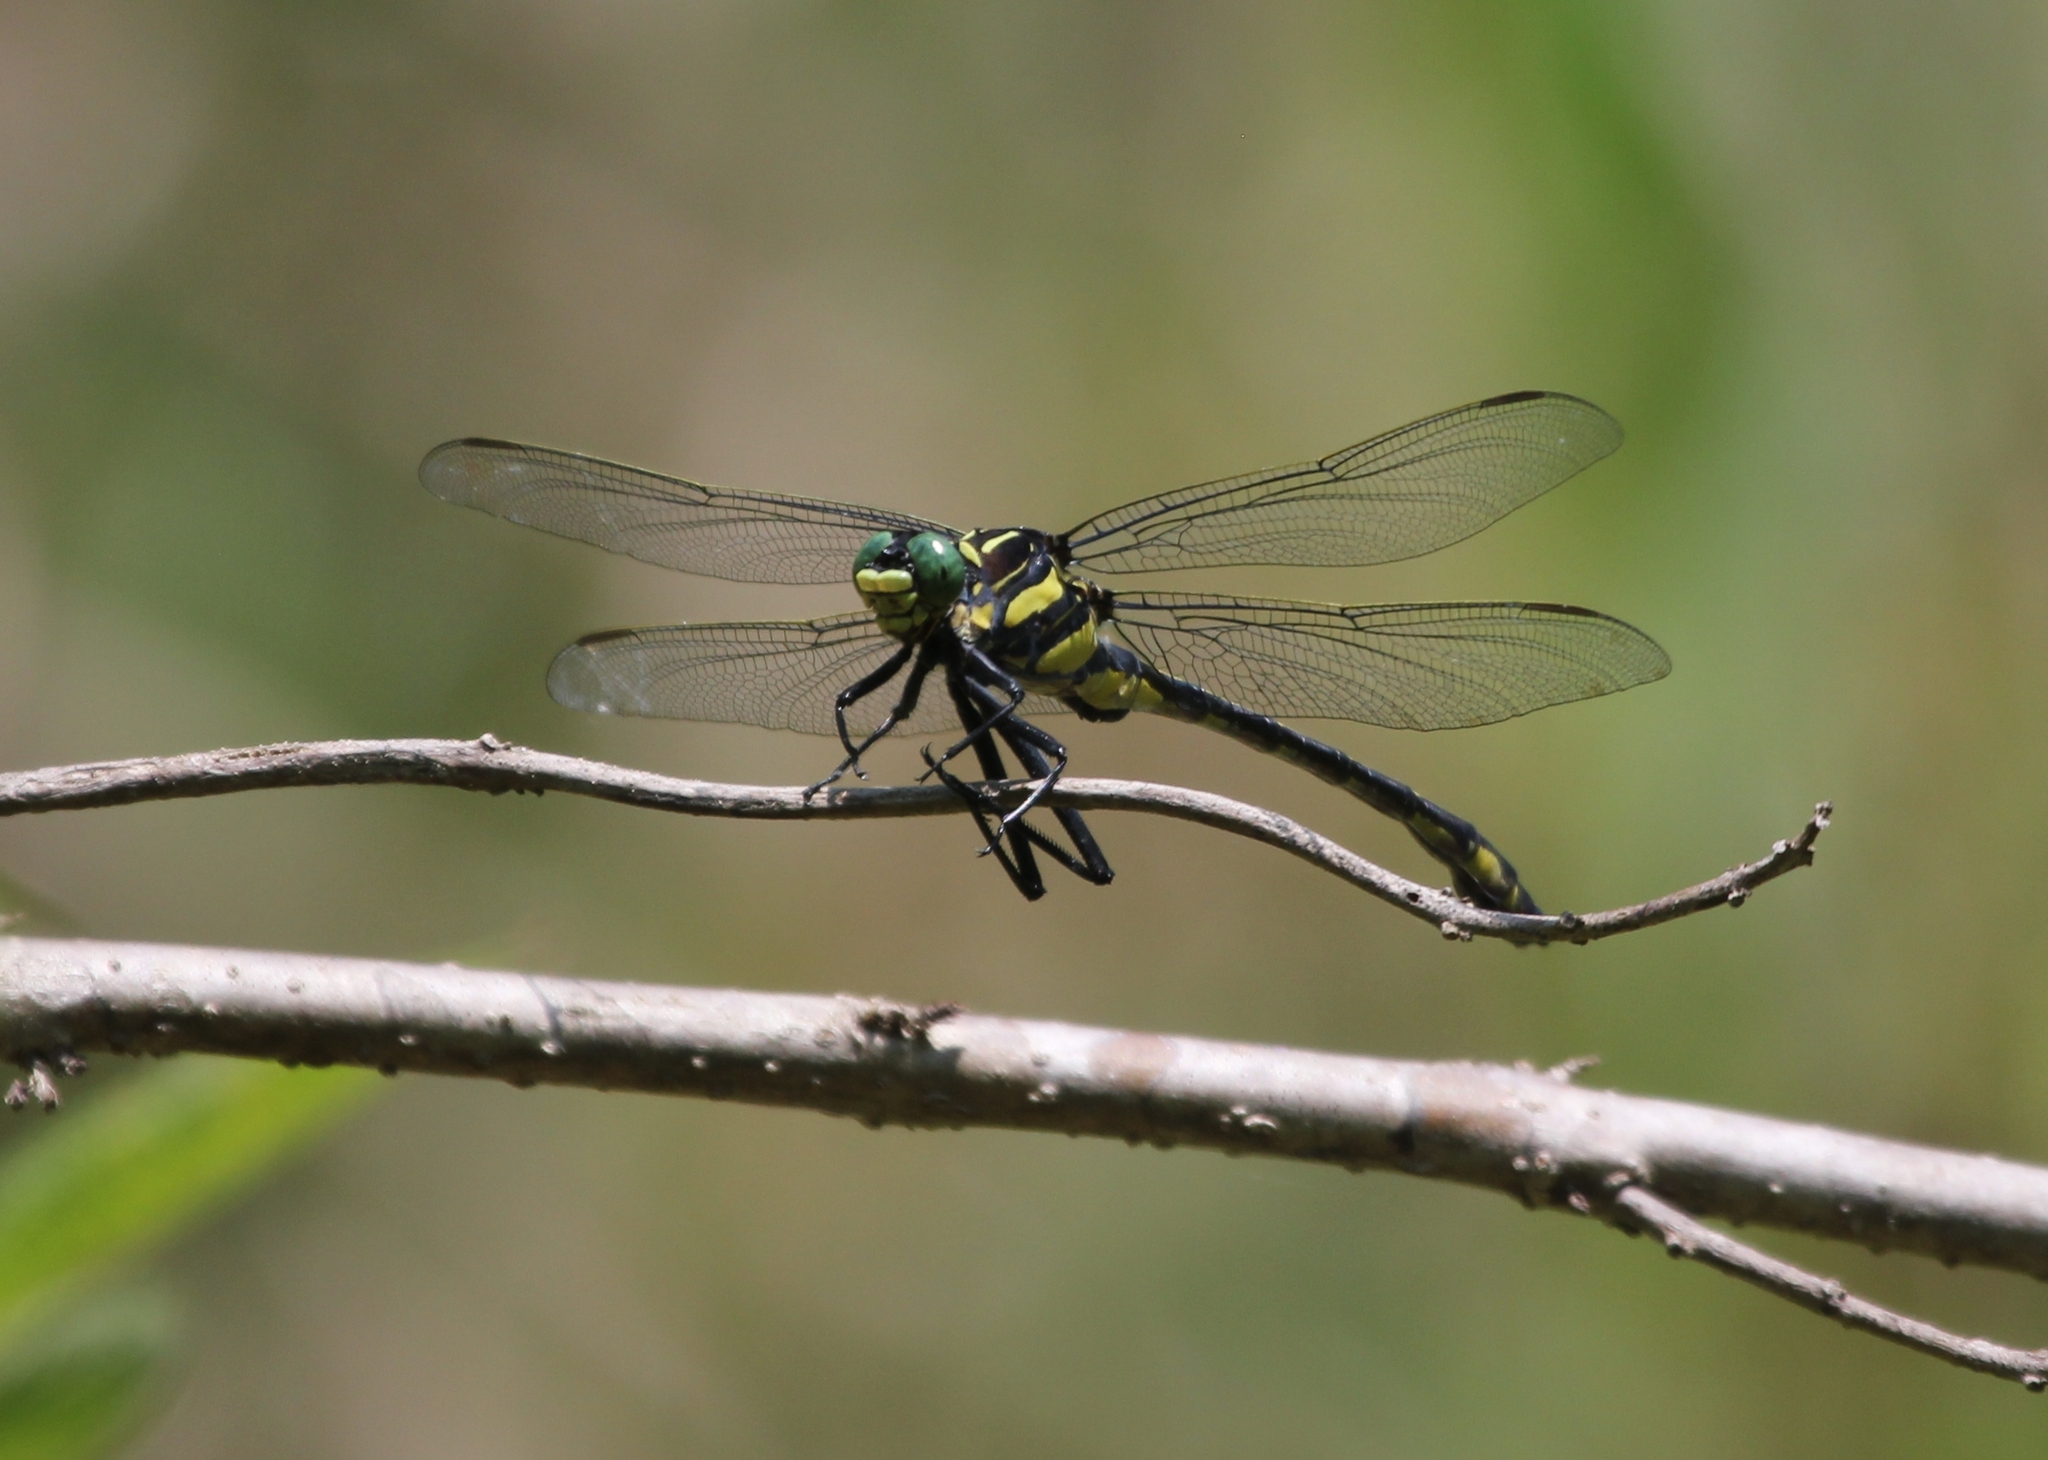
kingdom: Animalia
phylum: Arthropoda
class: Insecta
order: Odonata
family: Gomphidae
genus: Hagenius
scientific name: Hagenius brevistylus
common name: Dragonhunter
